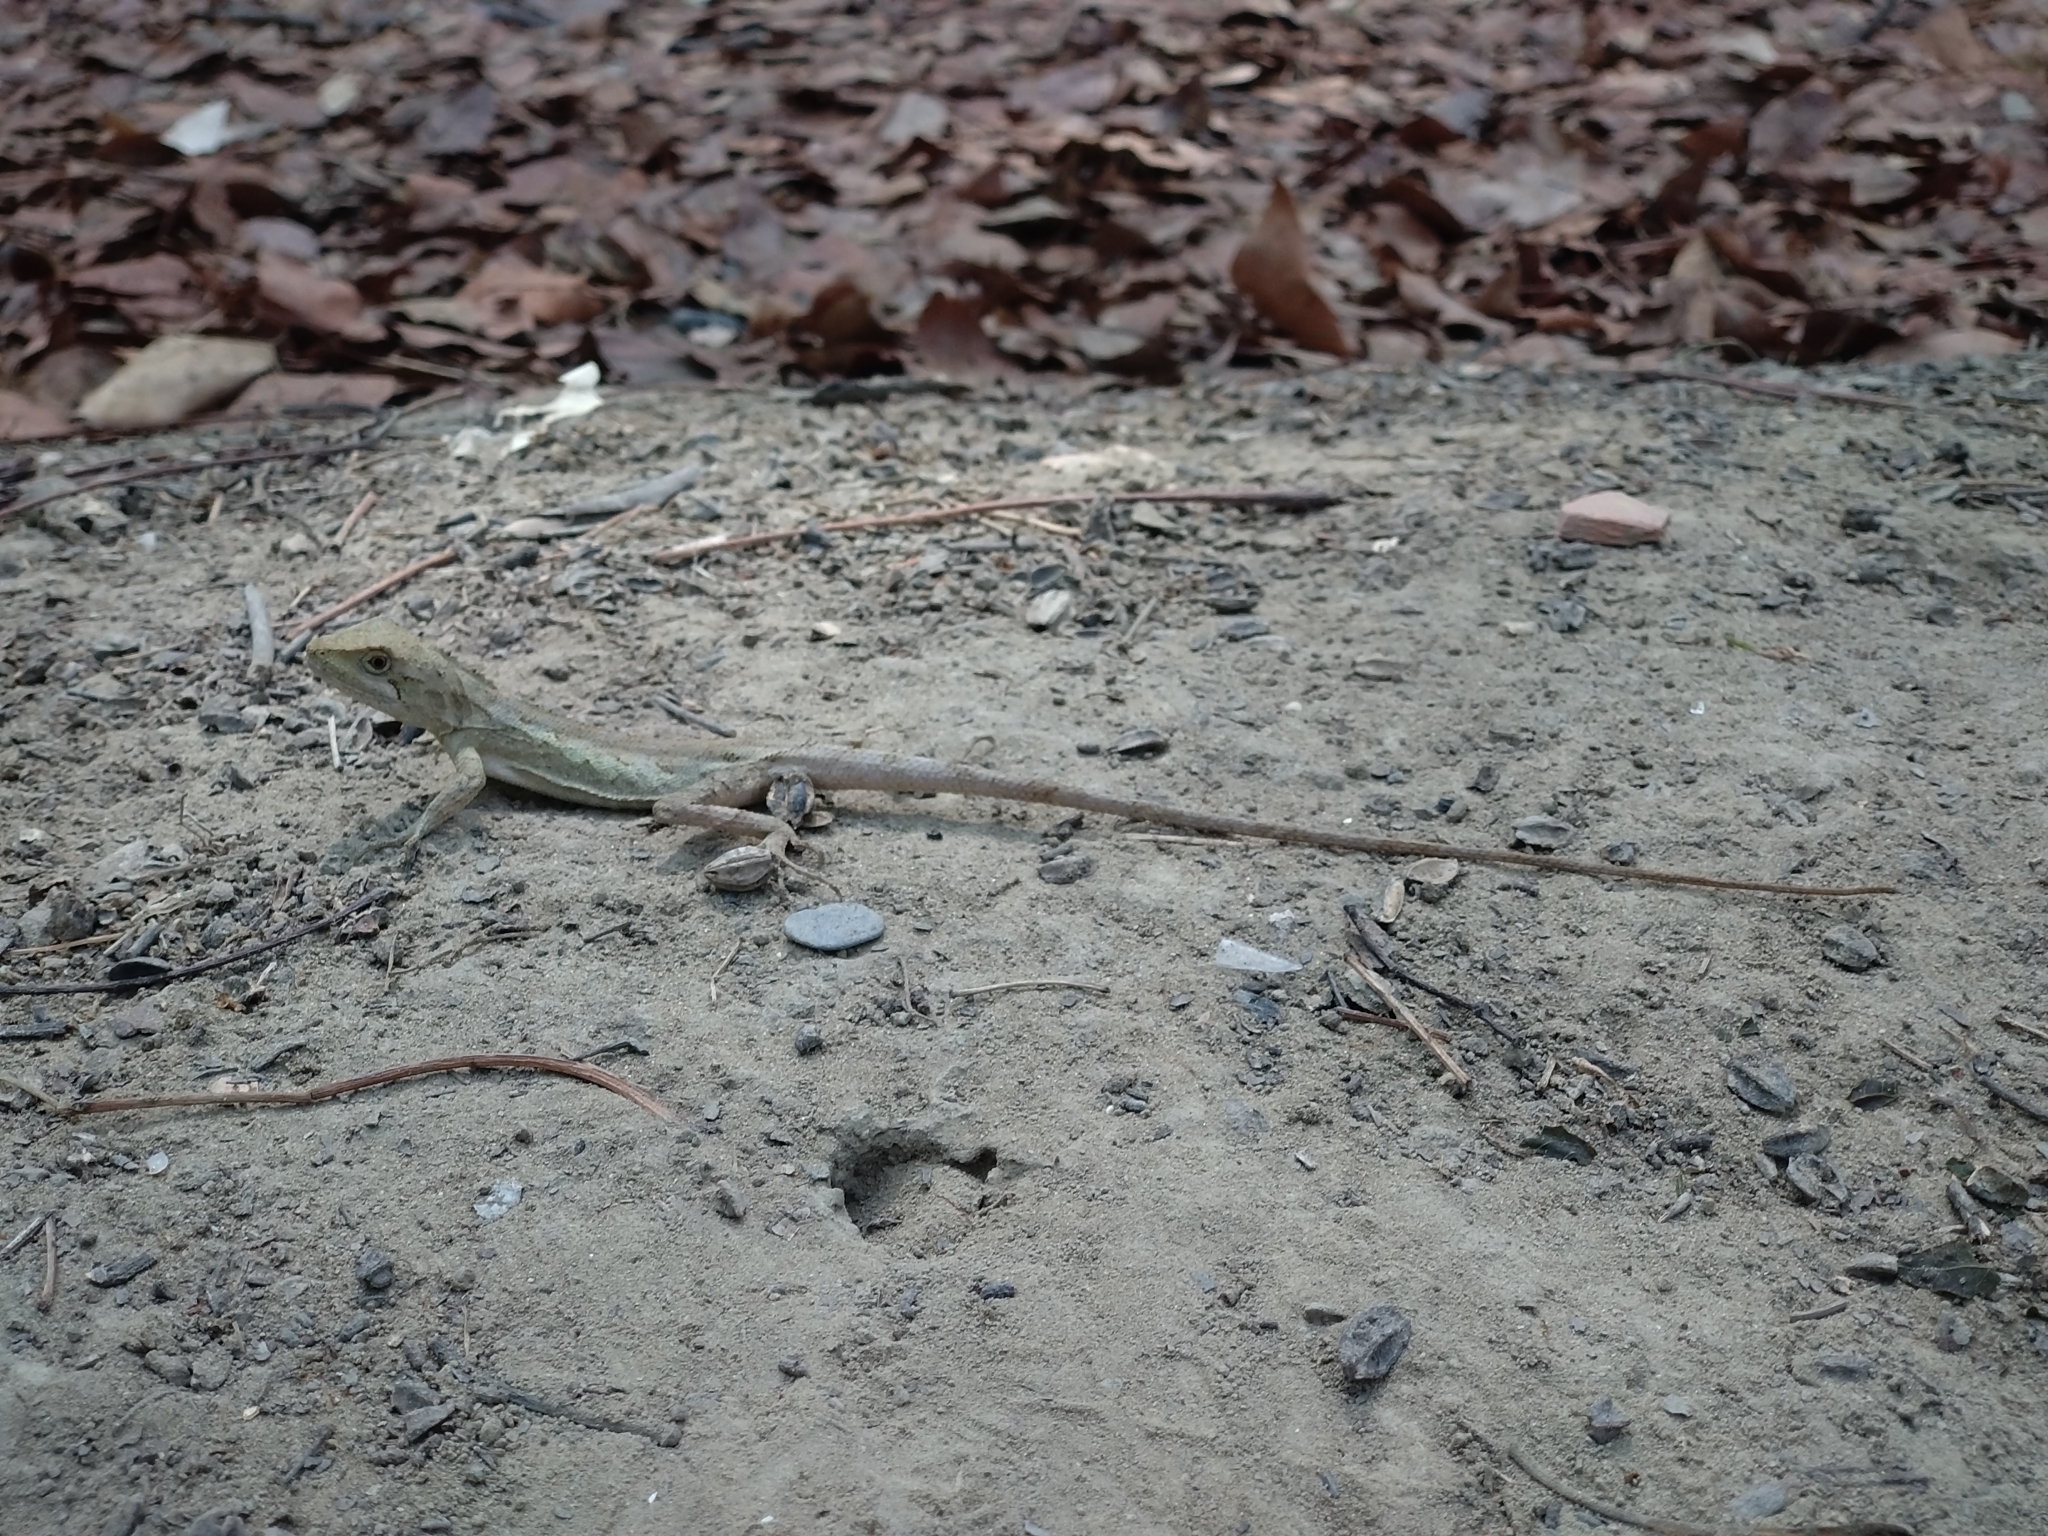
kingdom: Animalia
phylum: Chordata
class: Squamata
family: Agamidae
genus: Diploderma
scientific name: Diploderma swinhonis
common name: Taiwan japalure
